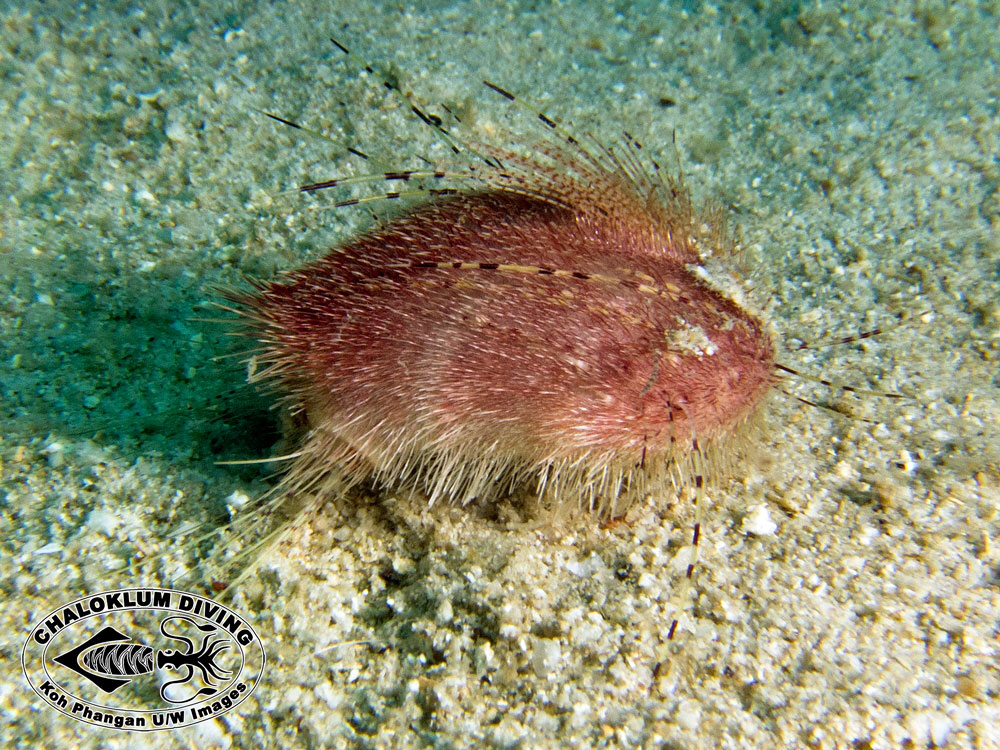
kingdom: Animalia
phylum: Echinodermata
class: Echinoidea
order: Spatangoida
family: Loveniidae
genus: Lovenia
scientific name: Lovenia cordiformis
